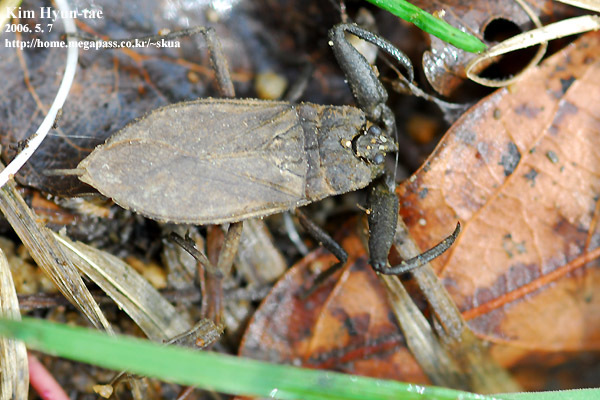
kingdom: Animalia
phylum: Arthropoda
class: Insecta
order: Hemiptera
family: Nepidae
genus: Nepa
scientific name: Nepa hoffmanni
